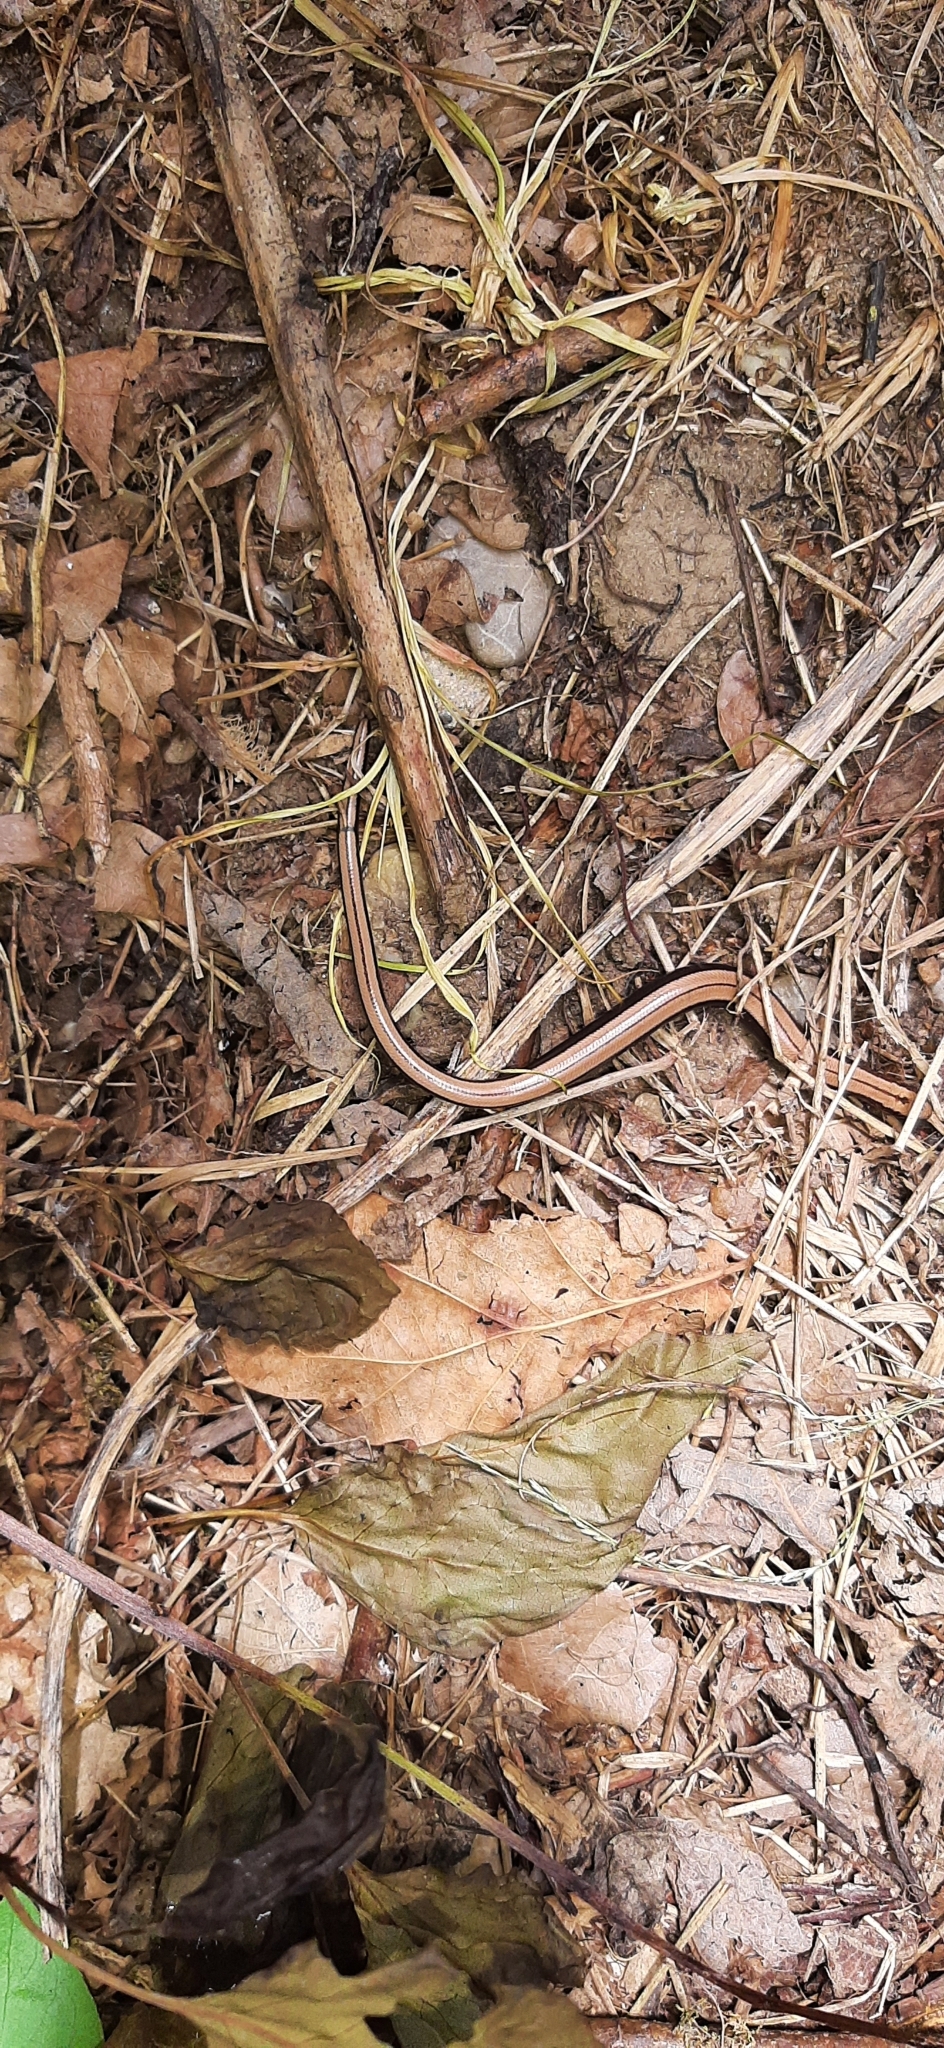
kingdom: Animalia
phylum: Chordata
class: Squamata
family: Anguidae
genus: Anguis
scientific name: Anguis fragilis
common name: Slow worm
